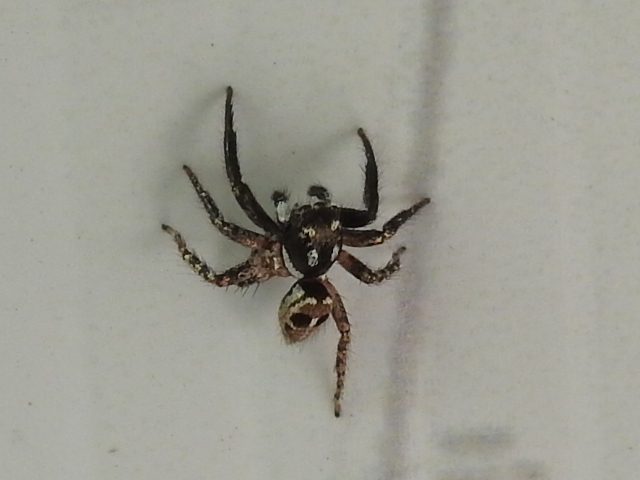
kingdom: Animalia
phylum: Arthropoda
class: Arachnida
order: Araneae
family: Salticidae
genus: Anasaitis
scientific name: Anasaitis canosa
